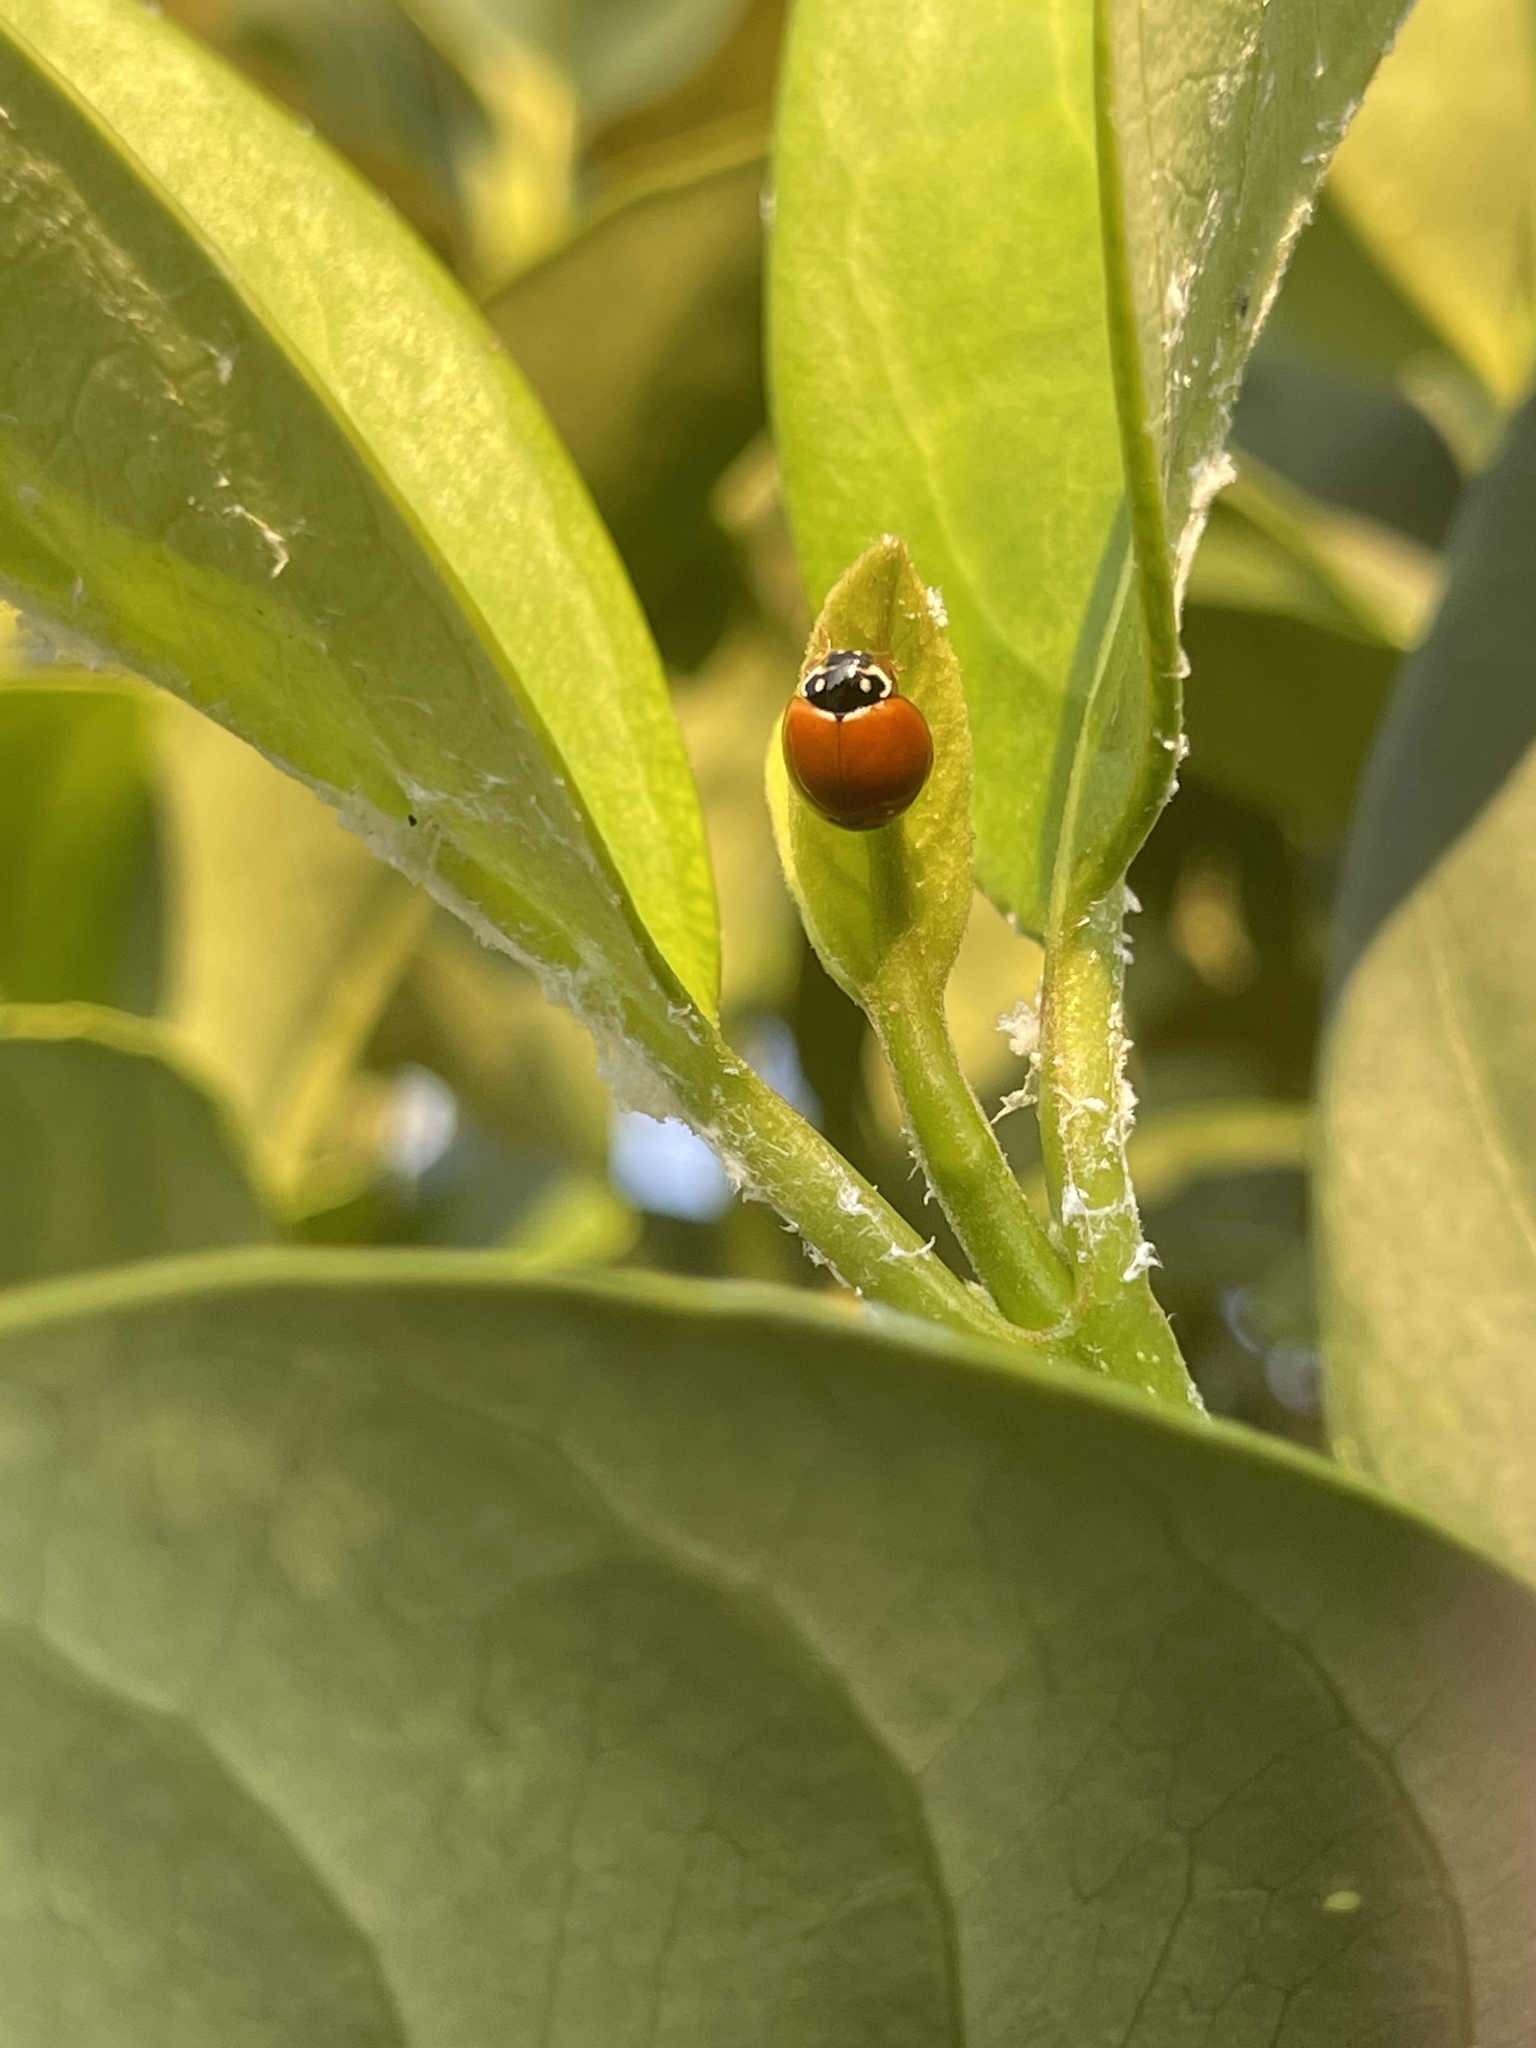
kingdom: Animalia
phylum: Arthropoda
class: Insecta
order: Coleoptera
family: Coccinellidae
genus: Cycloneda
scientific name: Cycloneda sanguinea
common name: Ladybird beetle
